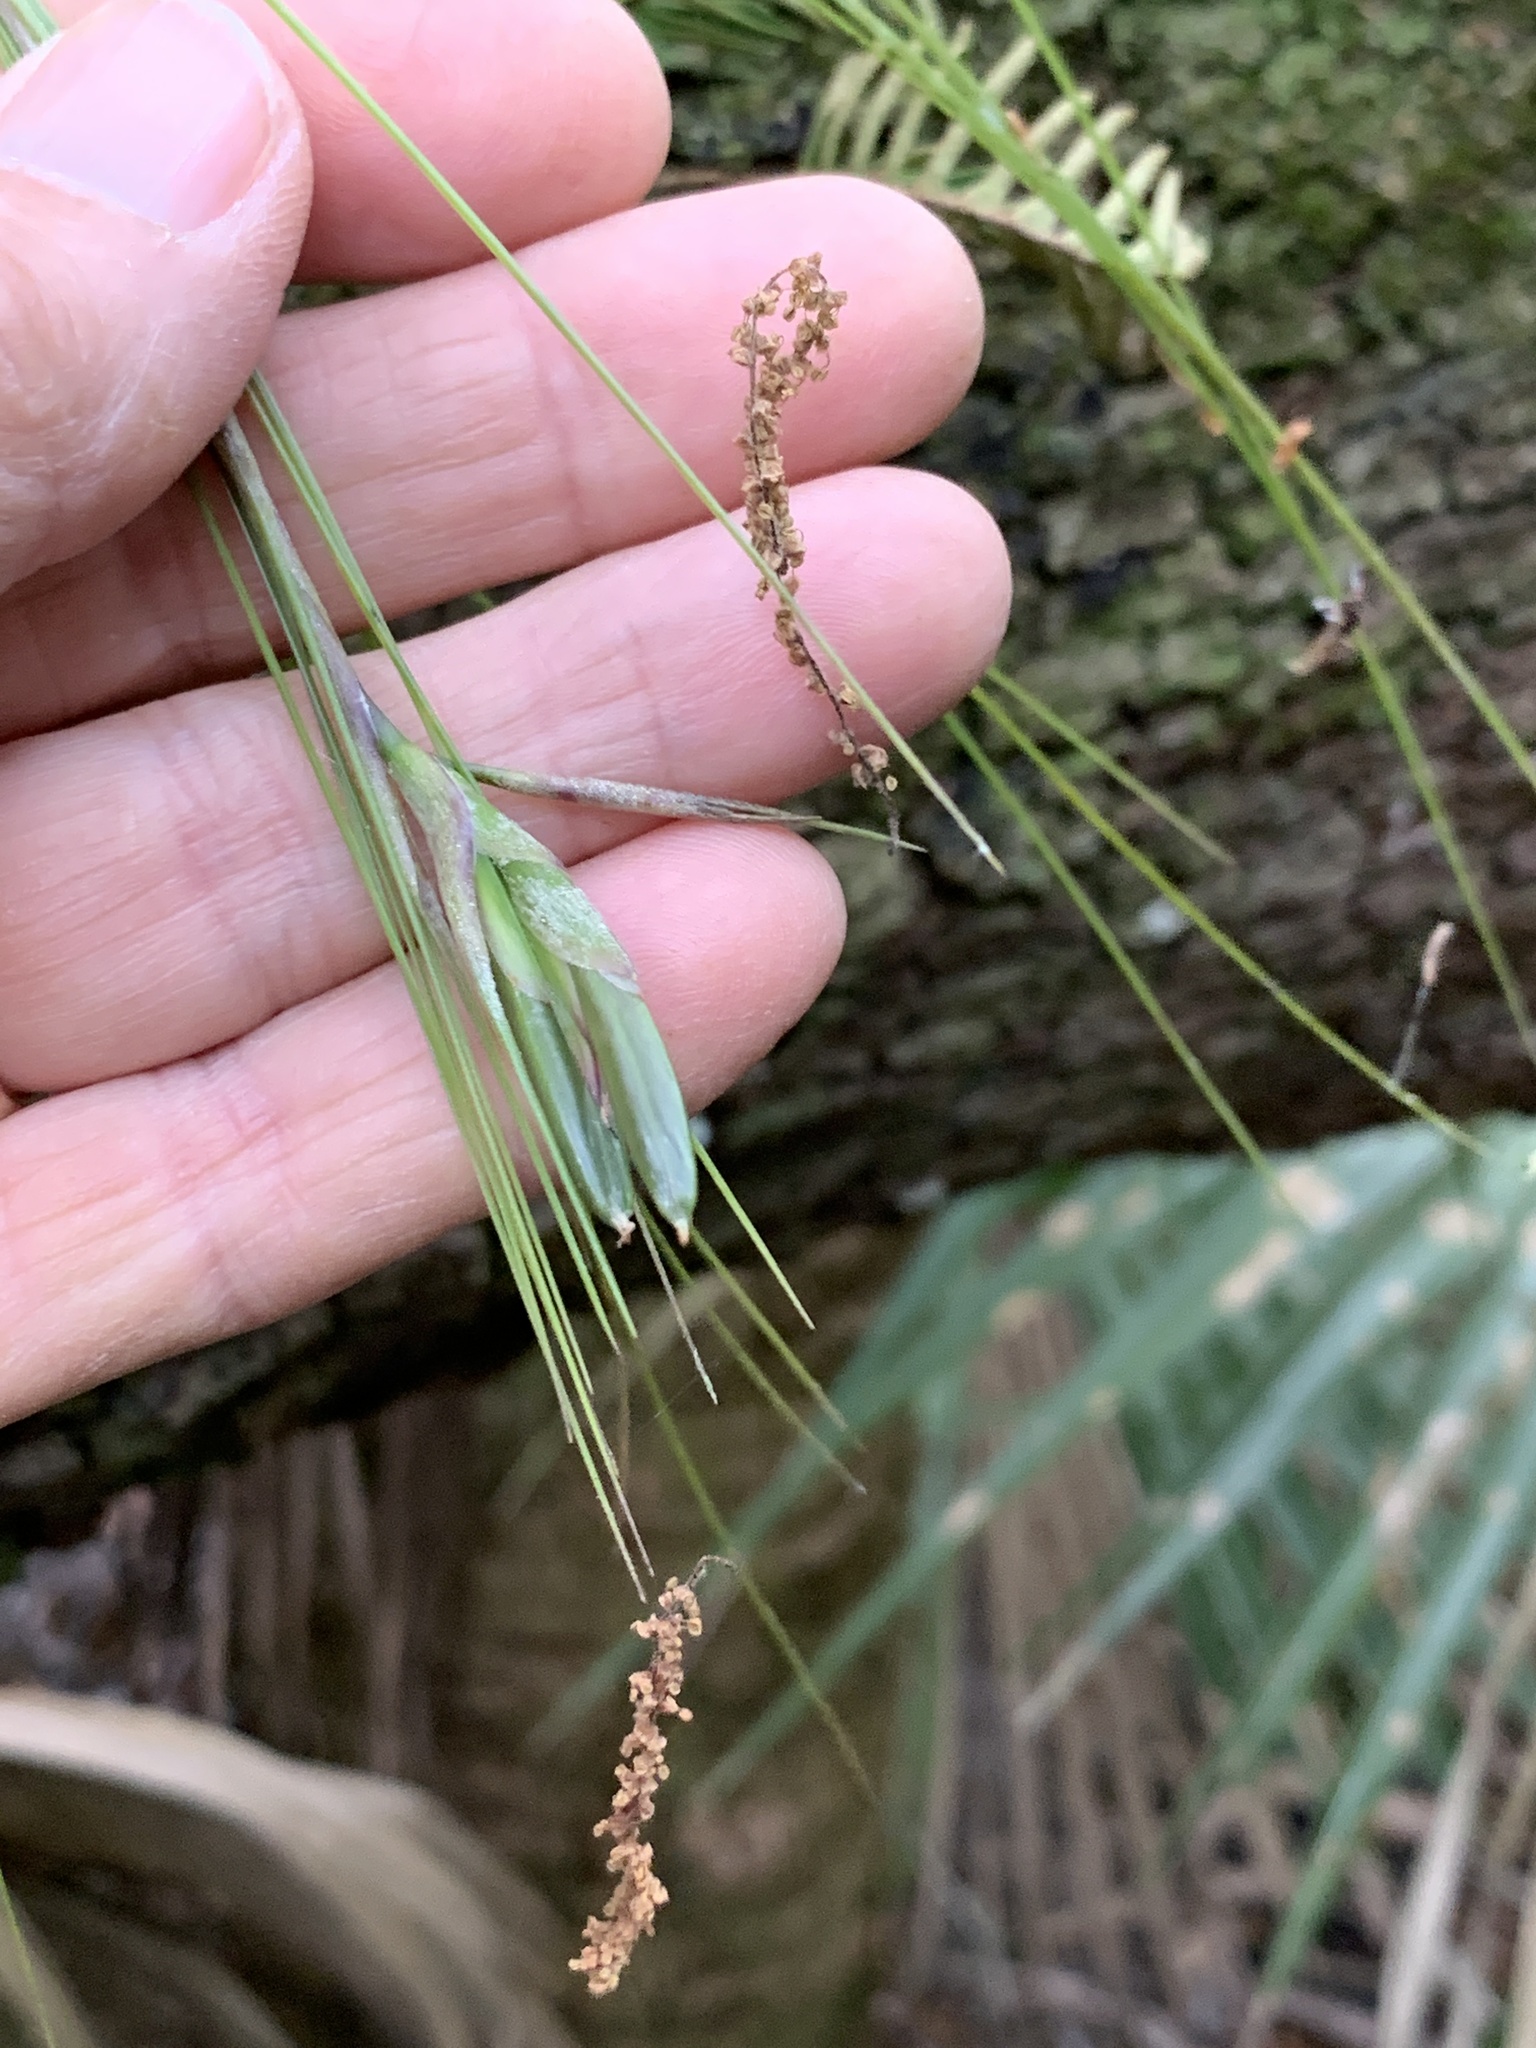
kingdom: Plantae
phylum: Tracheophyta
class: Liliopsida
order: Poales
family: Bromeliaceae
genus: Tillandsia
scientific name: Tillandsia setacea
